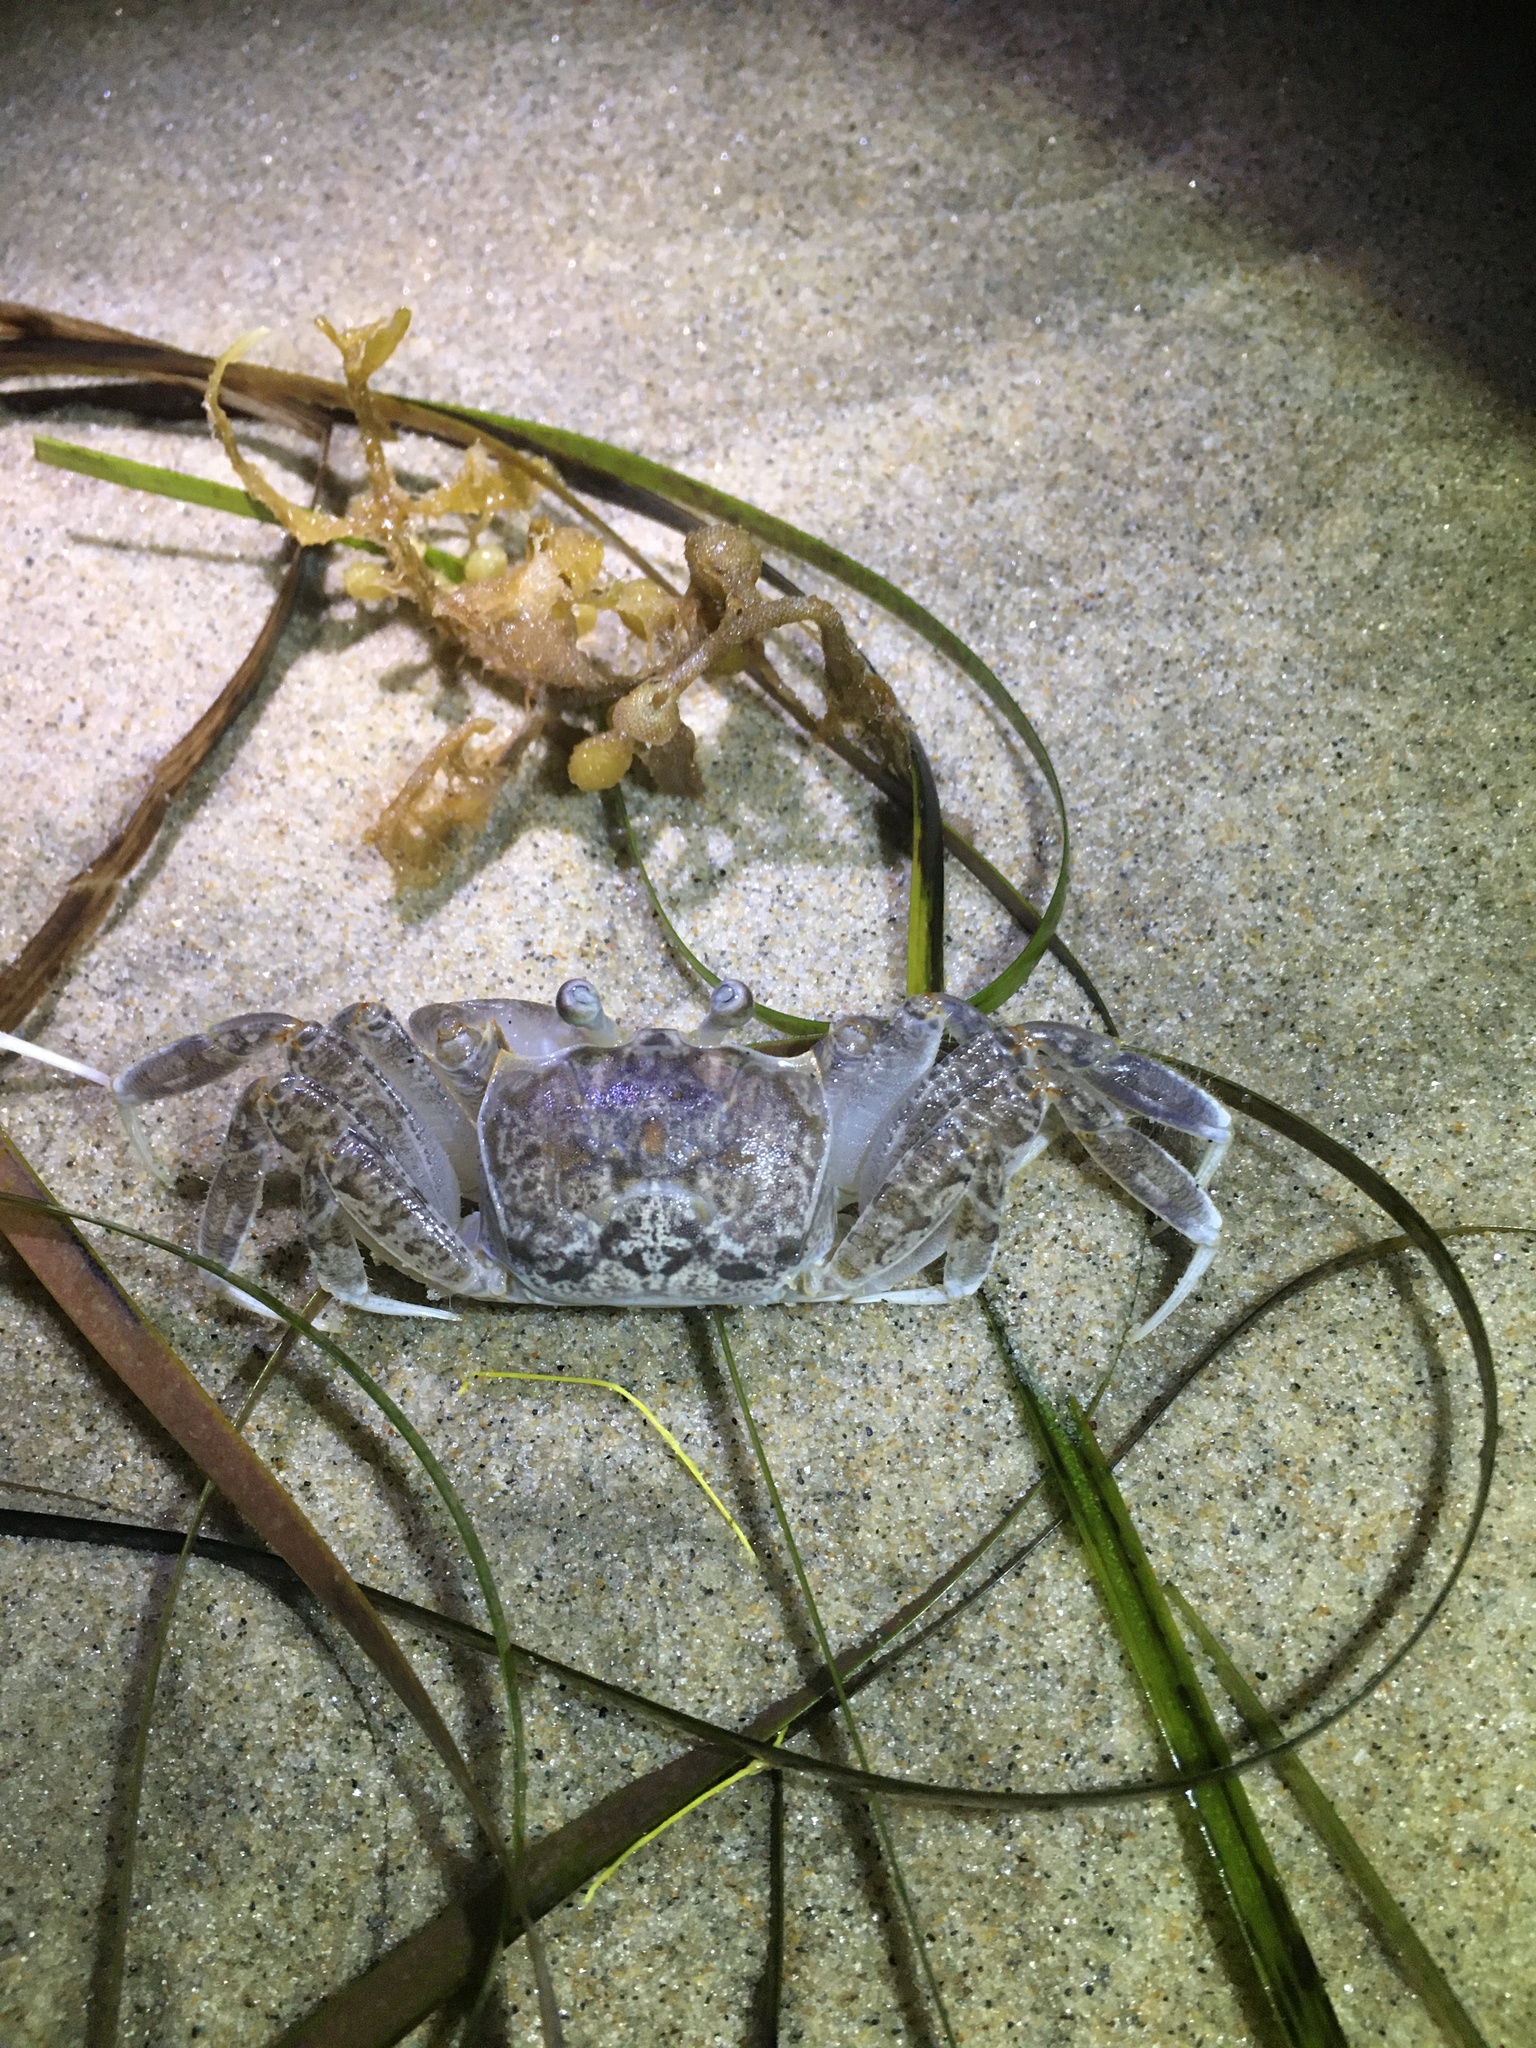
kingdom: Animalia
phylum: Arthropoda
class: Malacostraca
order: Decapoda
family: Ocypodidae
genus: Ocypode
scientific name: Ocypode quadrata
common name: Ghost crab
